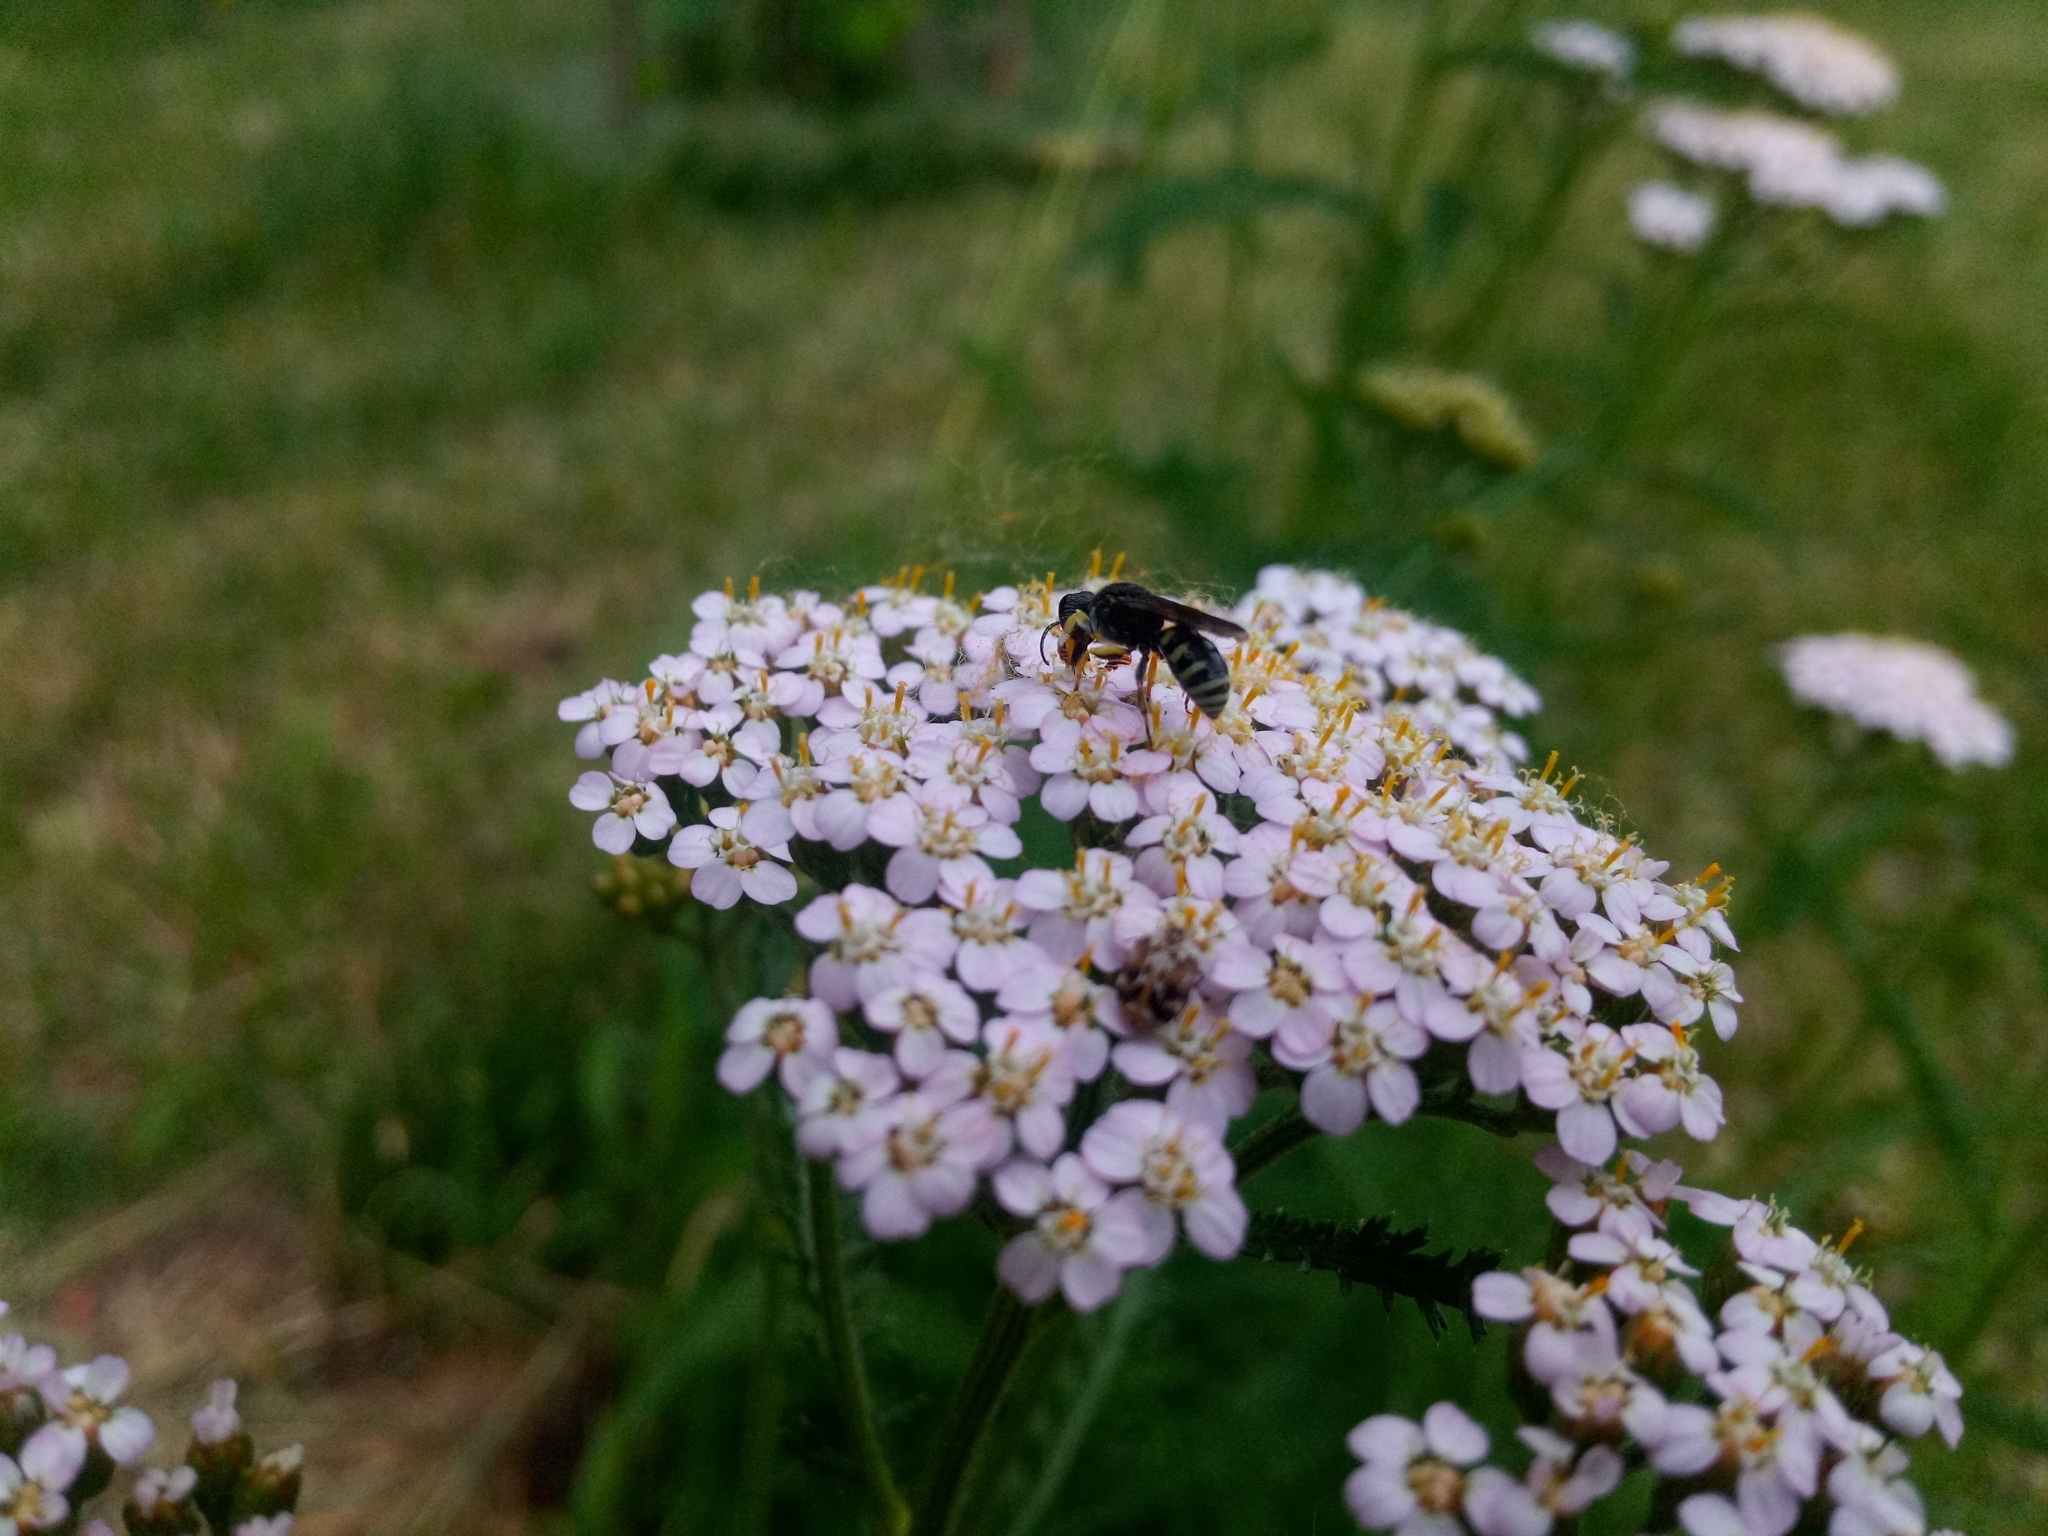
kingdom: Animalia
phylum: Arthropoda
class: Insecta
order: Hymenoptera
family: Crabronidae
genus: Lestica
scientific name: Lestica clypeata
